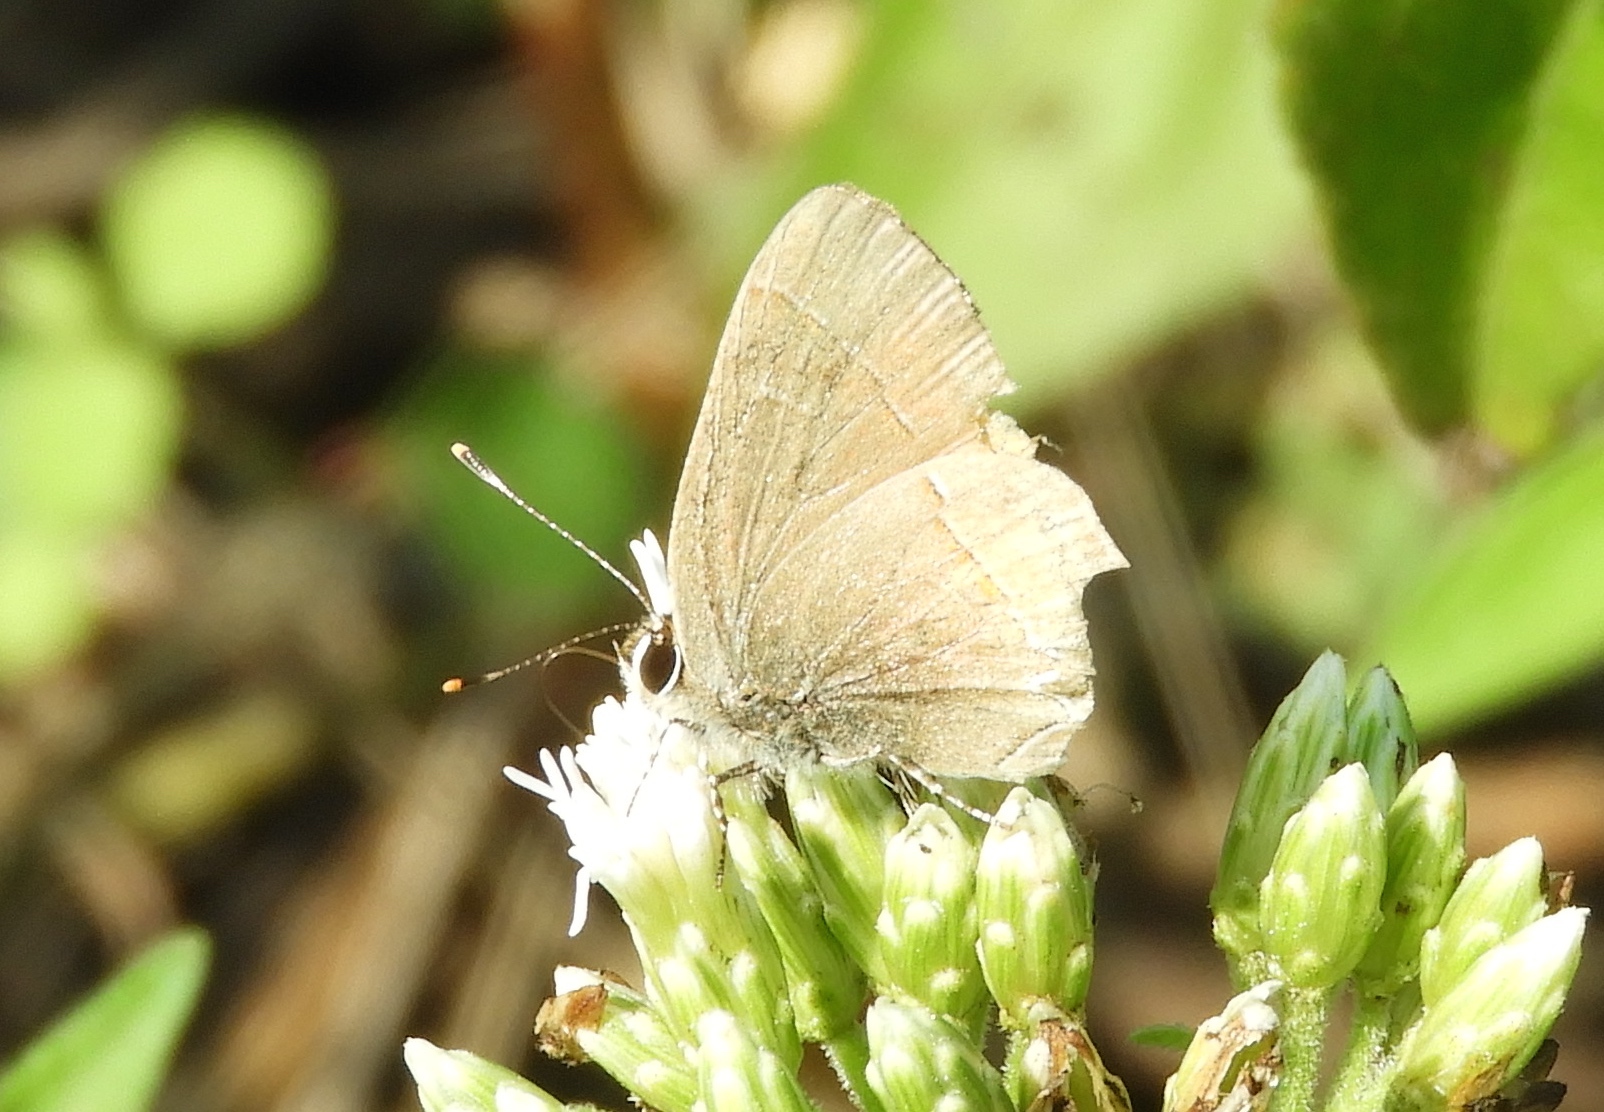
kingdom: Animalia
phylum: Arthropoda
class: Insecta
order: Lepidoptera
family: Lycaenidae
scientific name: Lycaenidae
